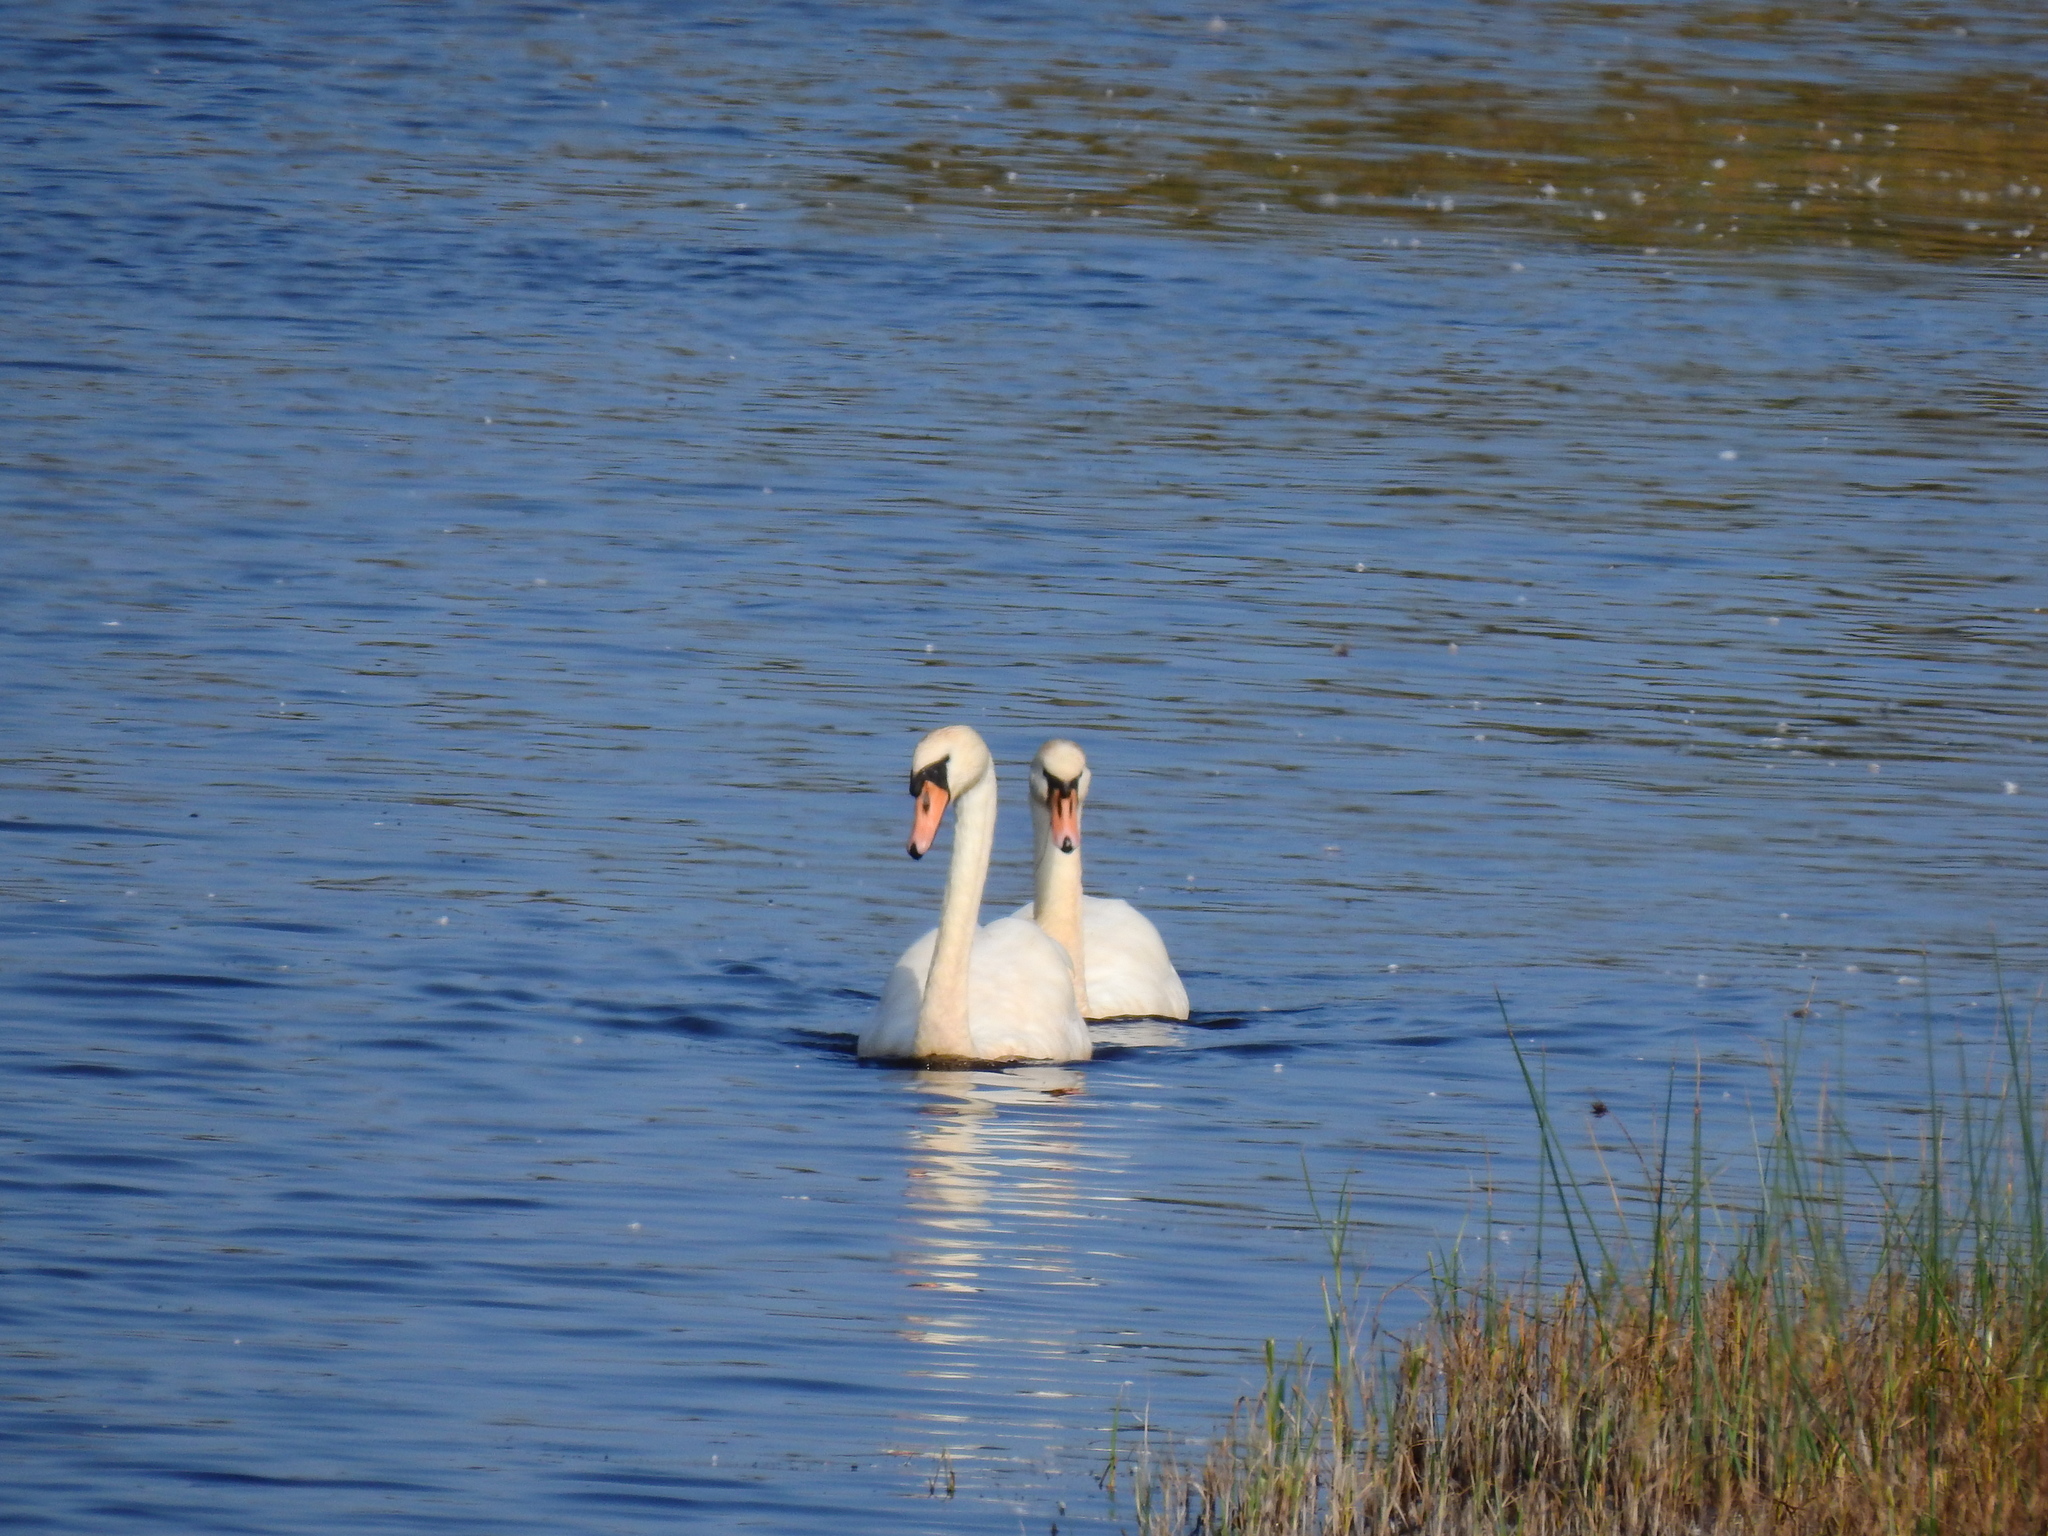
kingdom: Animalia
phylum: Chordata
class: Aves
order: Anseriformes
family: Anatidae
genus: Cygnus
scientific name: Cygnus olor
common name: Mute swan
